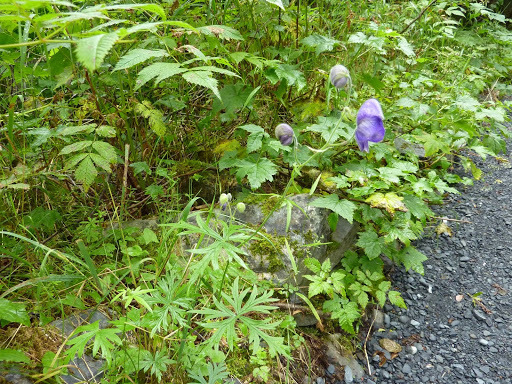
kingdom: Plantae
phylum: Tracheophyta
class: Magnoliopsida
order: Ranunculales
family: Ranunculaceae
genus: Aconitum
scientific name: Aconitum delphiniifolium
